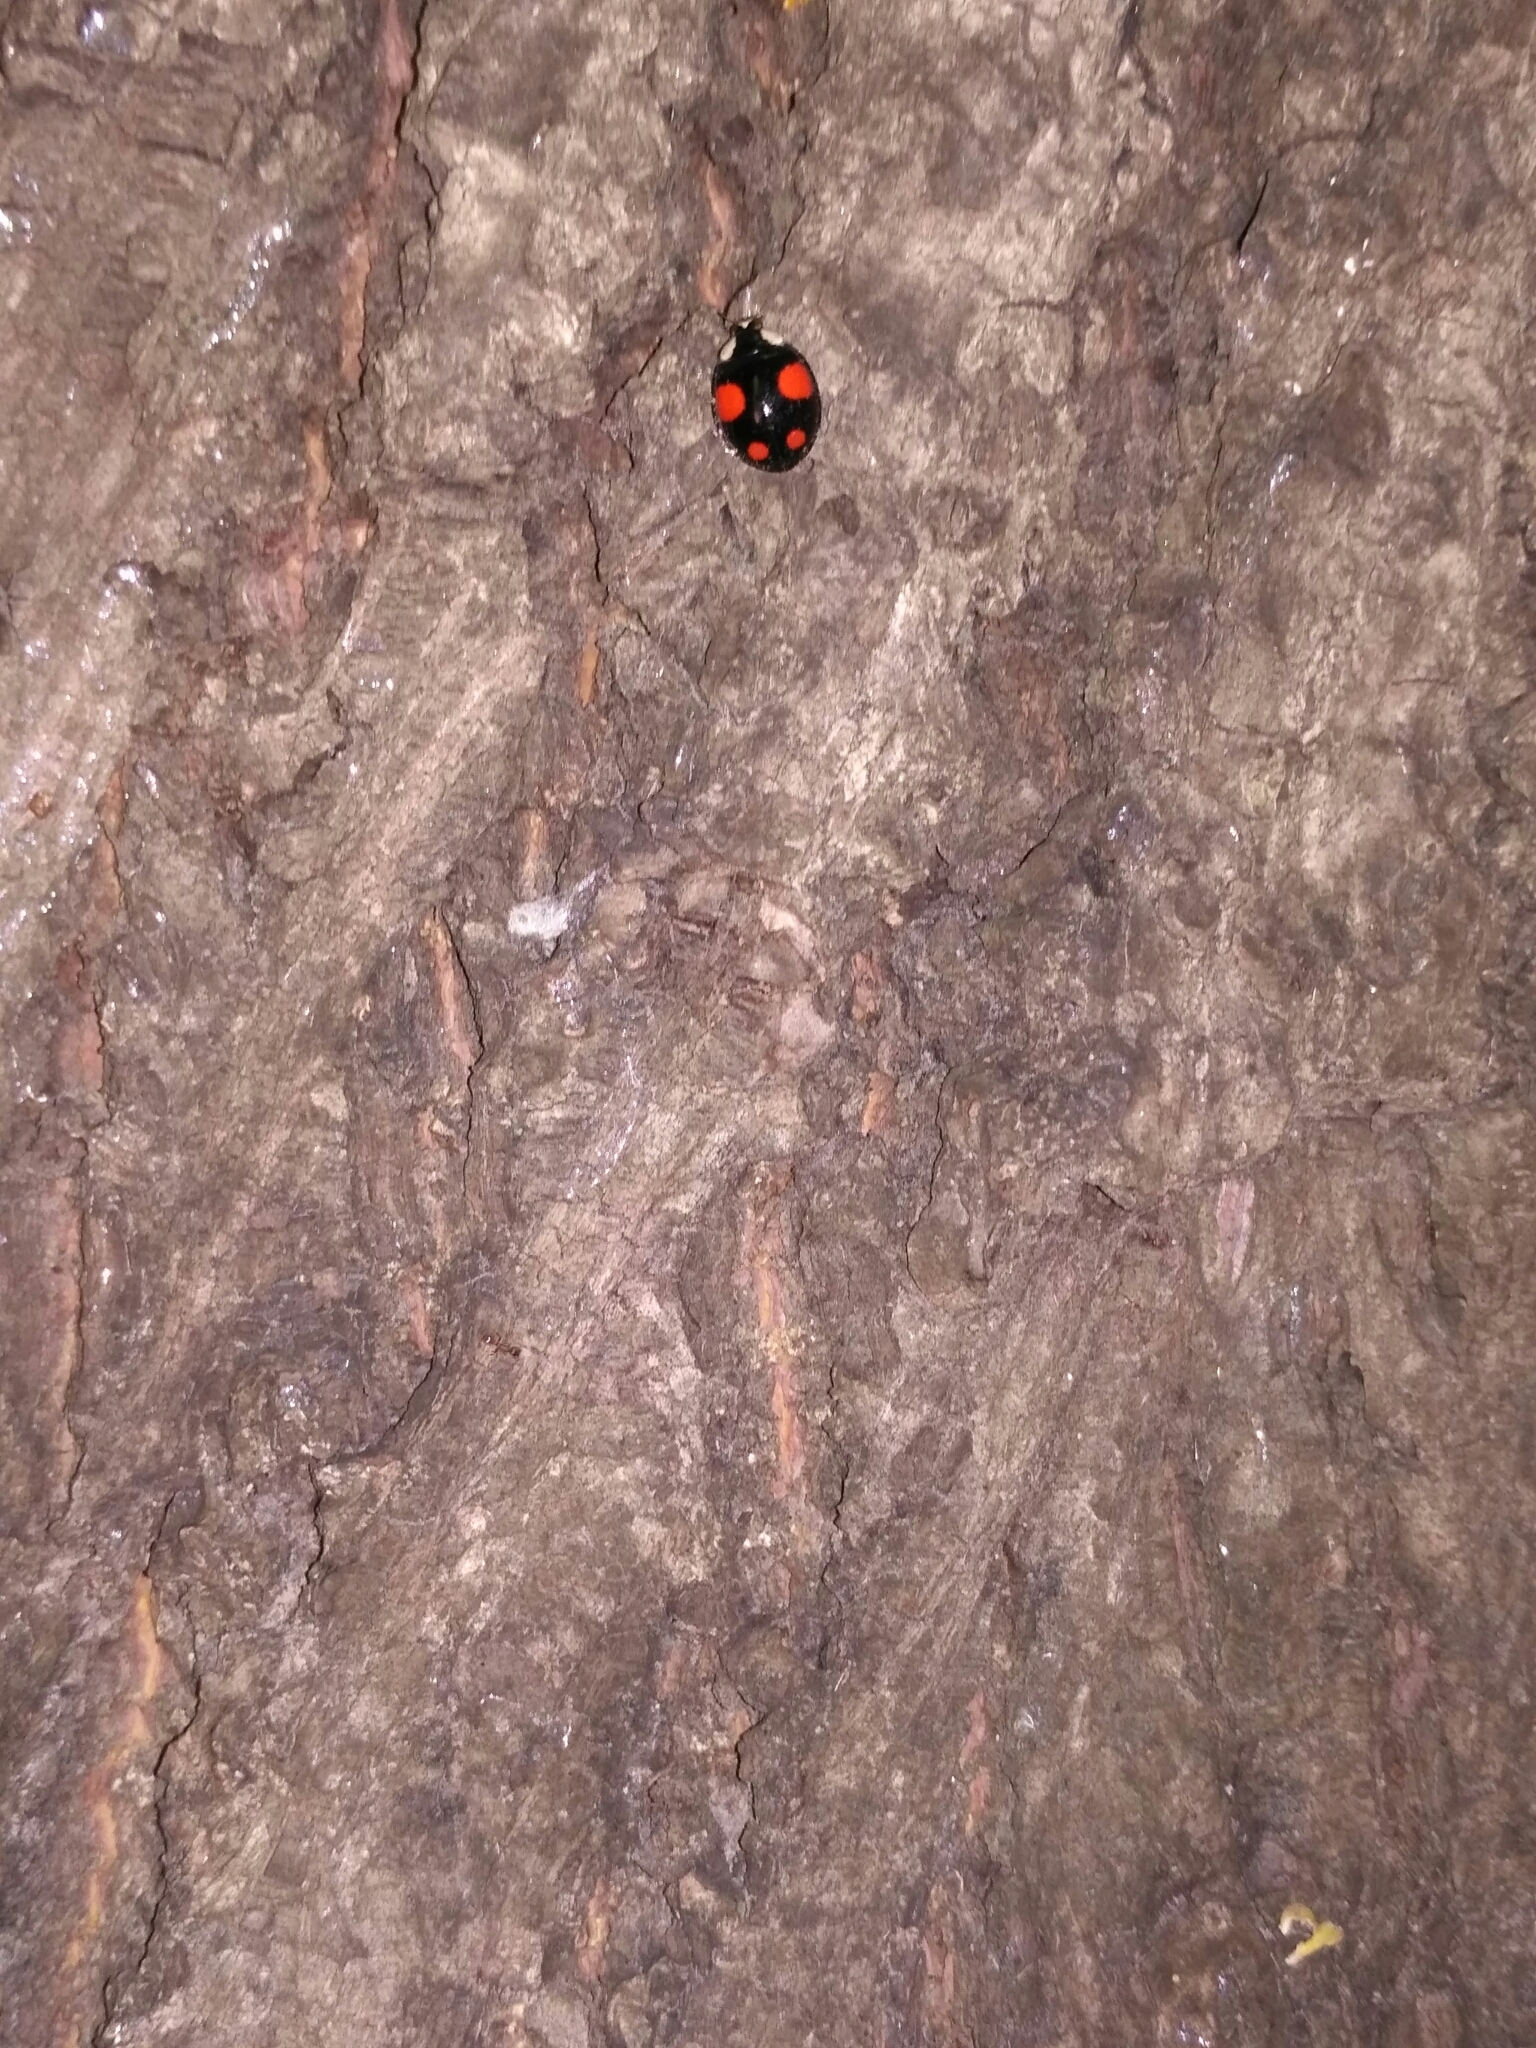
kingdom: Animalia
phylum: Arthropoda
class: Insecta
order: Coleoptera
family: Coccinellidae
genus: Harmonia
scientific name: Harmonia axyridis
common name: Harlequin ladybird
